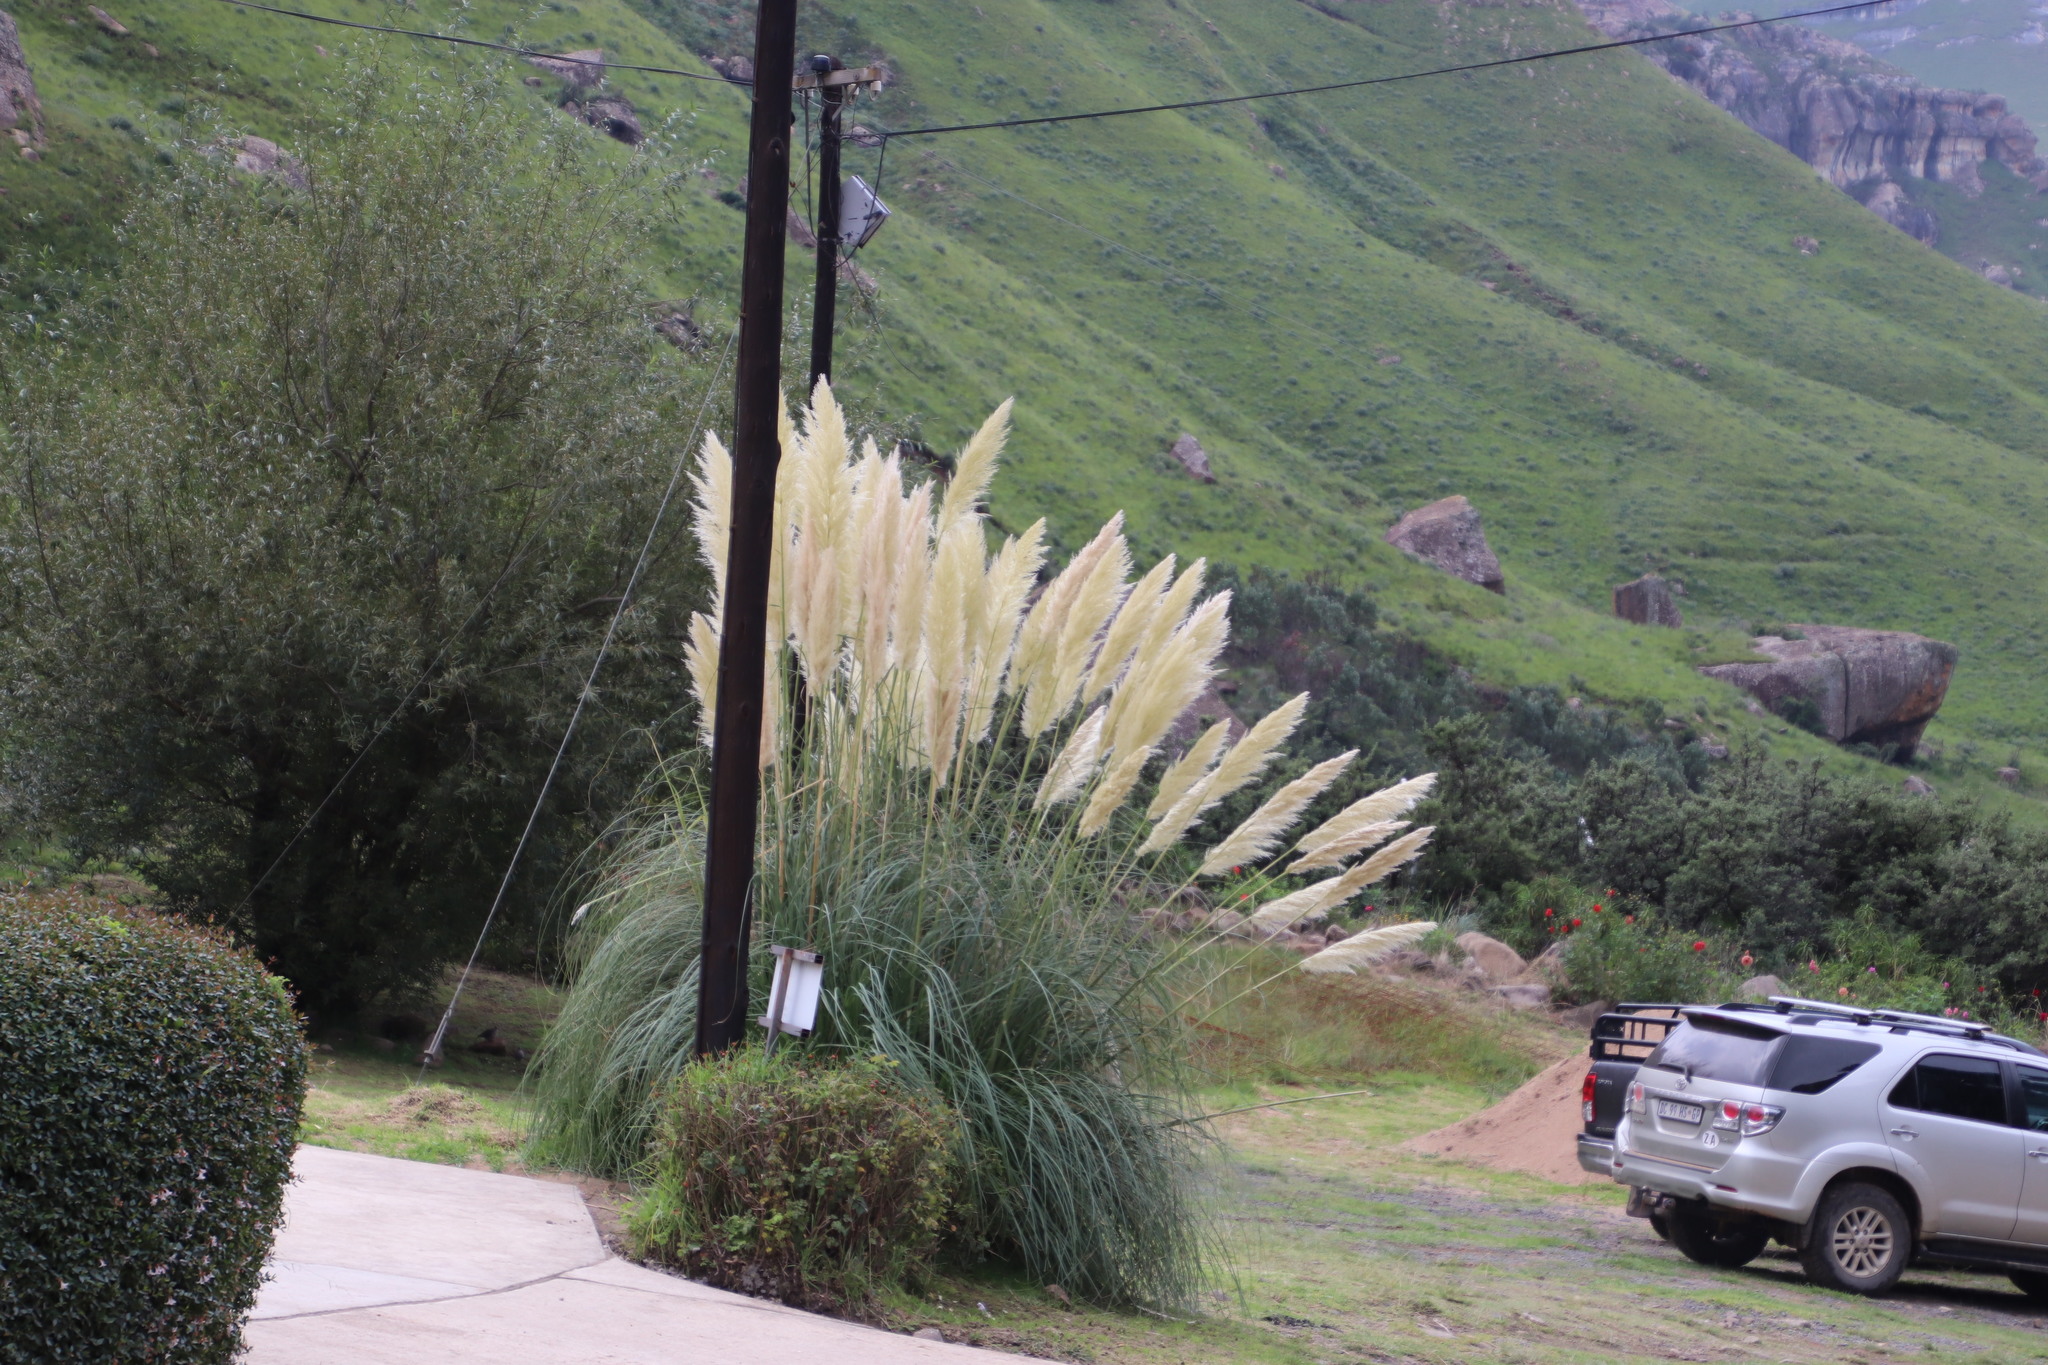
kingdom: Plantae
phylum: Tracheophyta
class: Liliopsida
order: Poales
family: Poaceae
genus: Cortaderia
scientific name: Cortaderia selloana
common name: Uruguayan pampas grass
